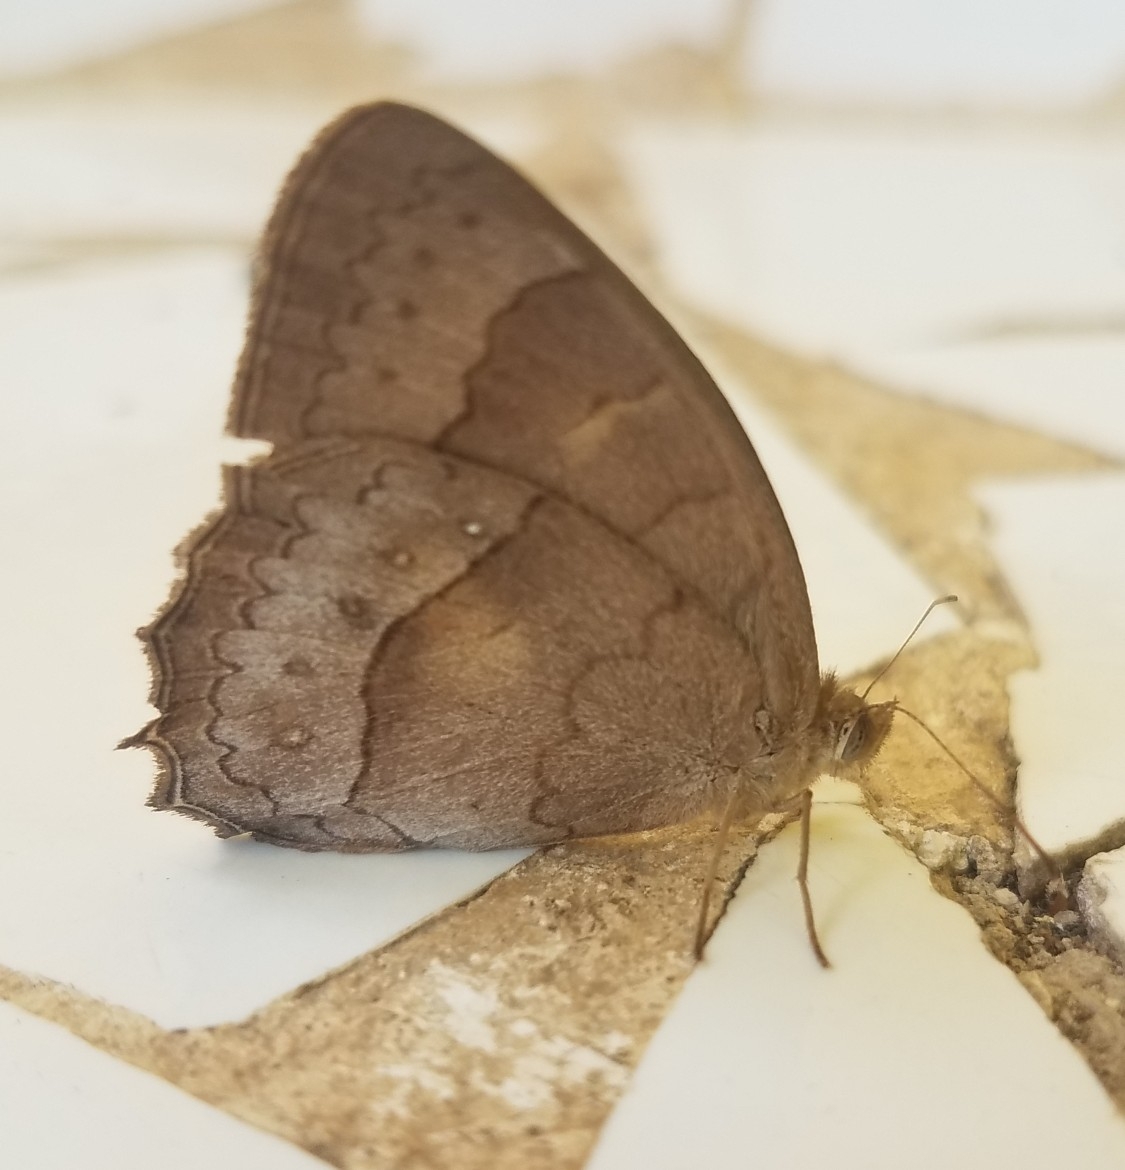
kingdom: Animalia
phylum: Arthropoda
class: Insecta
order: Lepidoptera
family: Nymphalidae
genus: Taygetina
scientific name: Taygetina kerea
